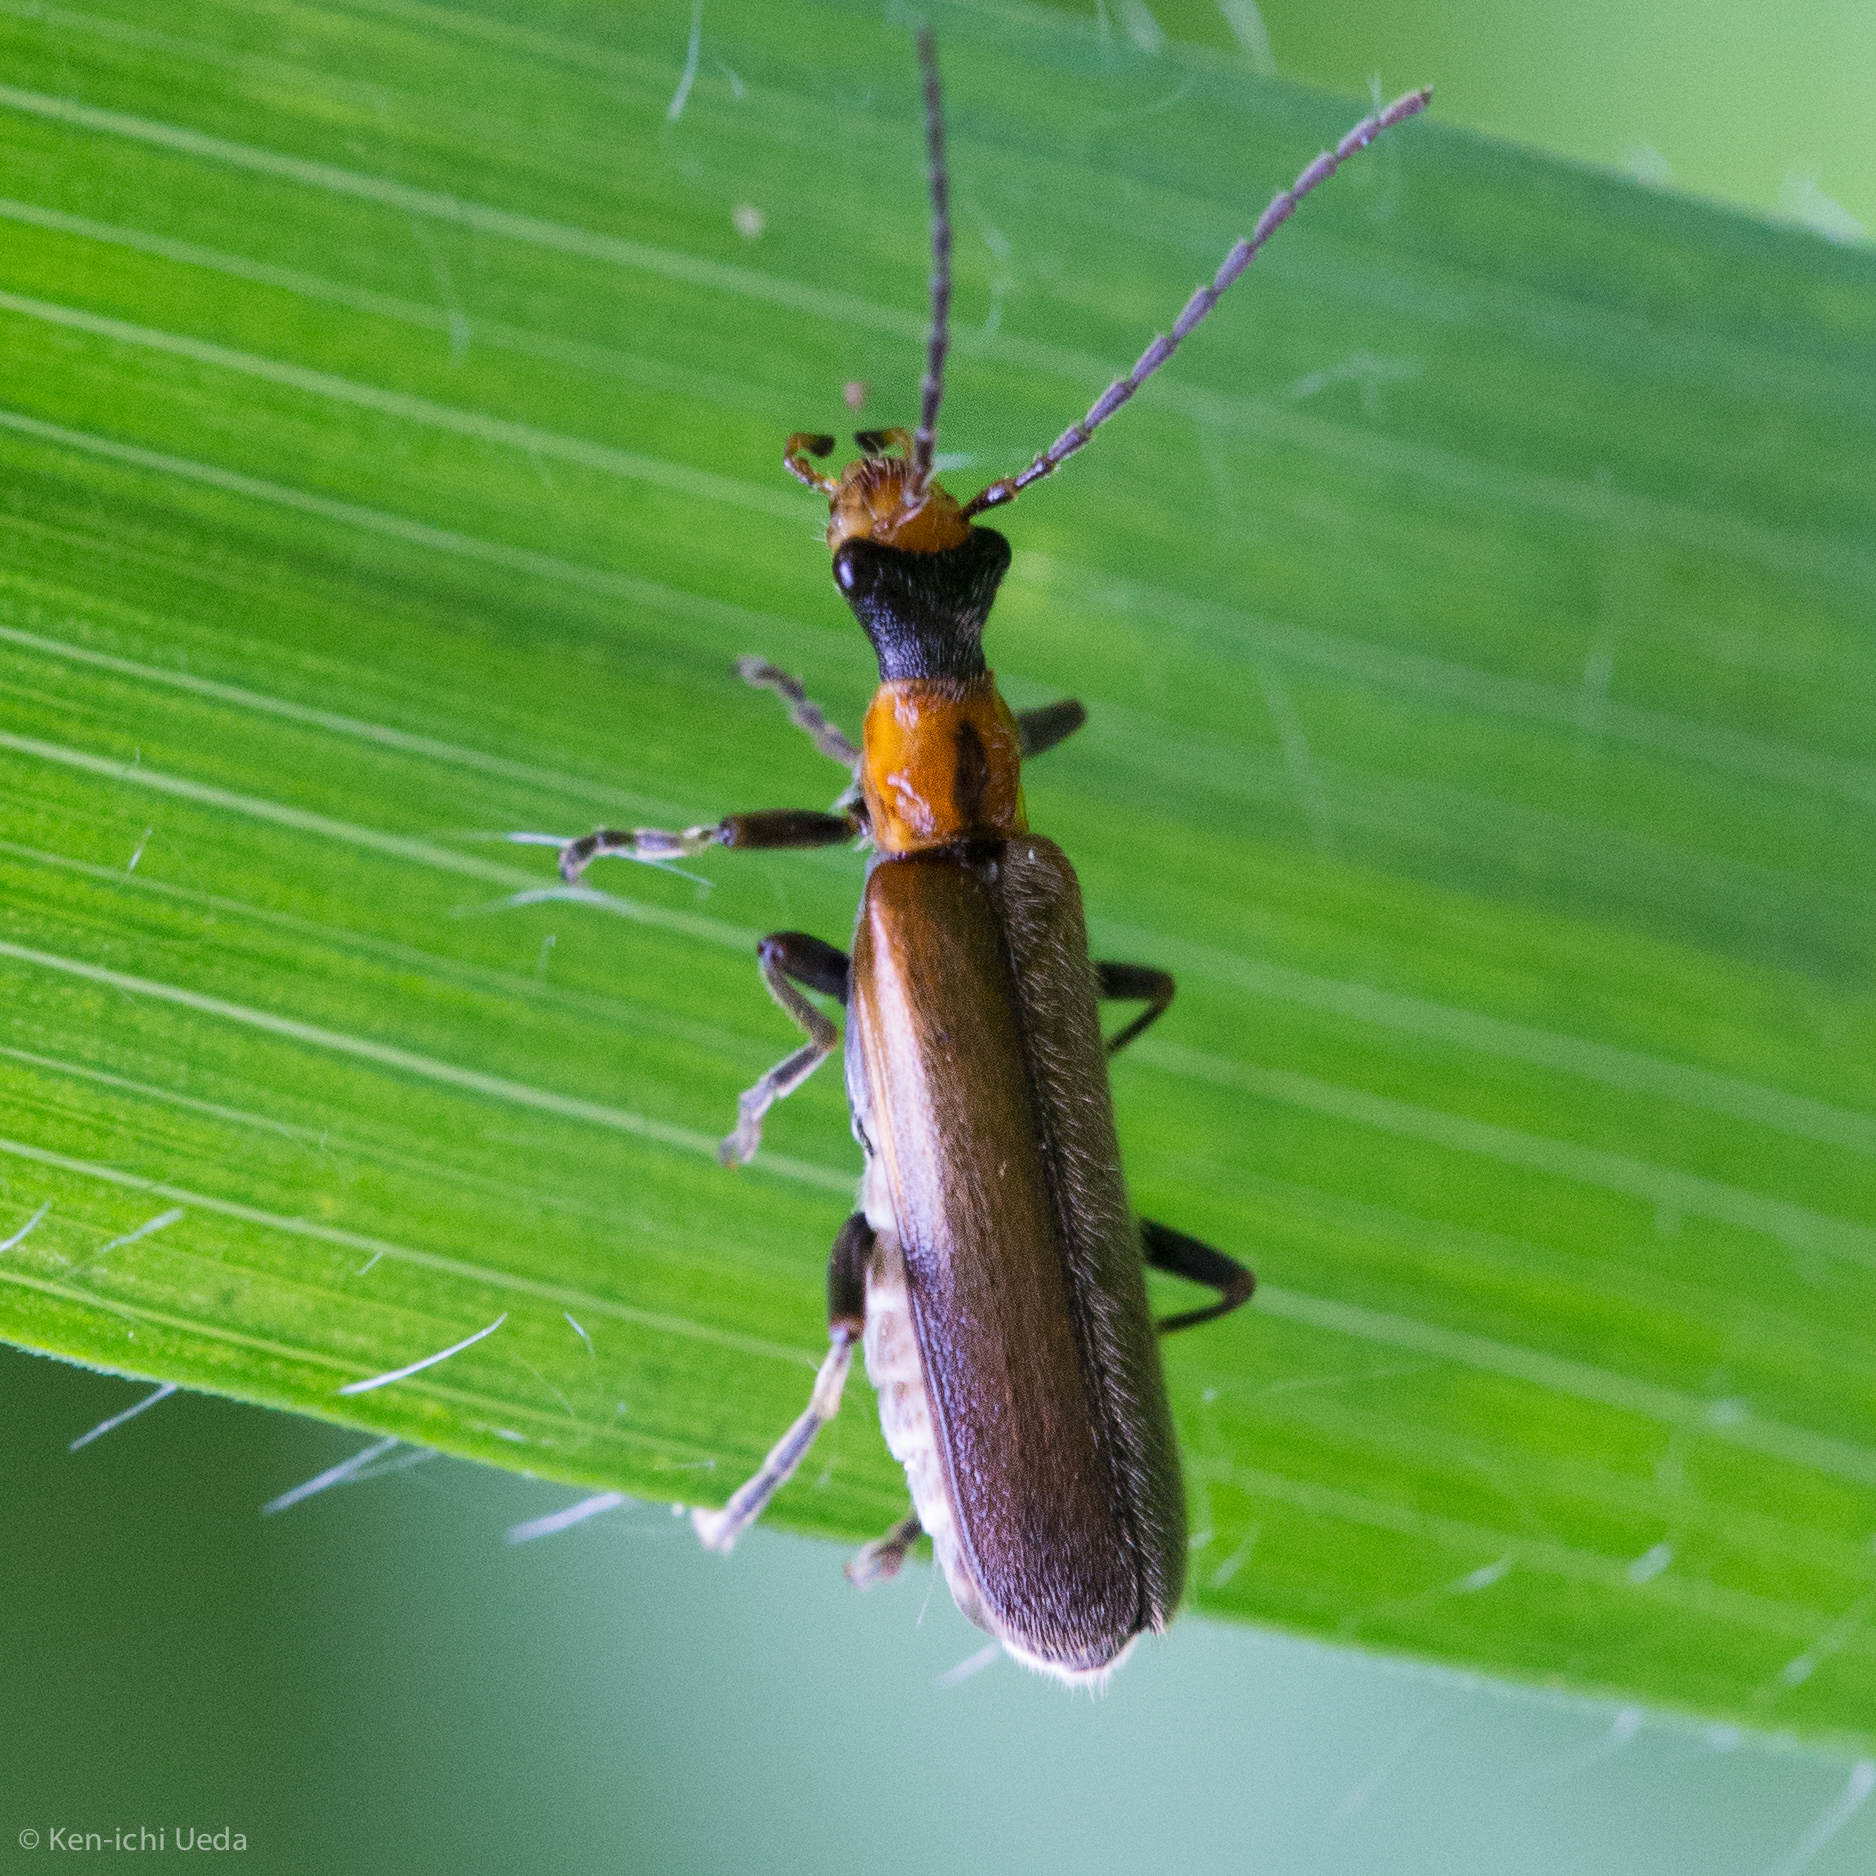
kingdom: Animalia
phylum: Arthropoda
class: Insecta
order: Coleoptera
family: Cantharidae
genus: Dichelotarsus
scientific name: Dichelotarsus cavicollis
